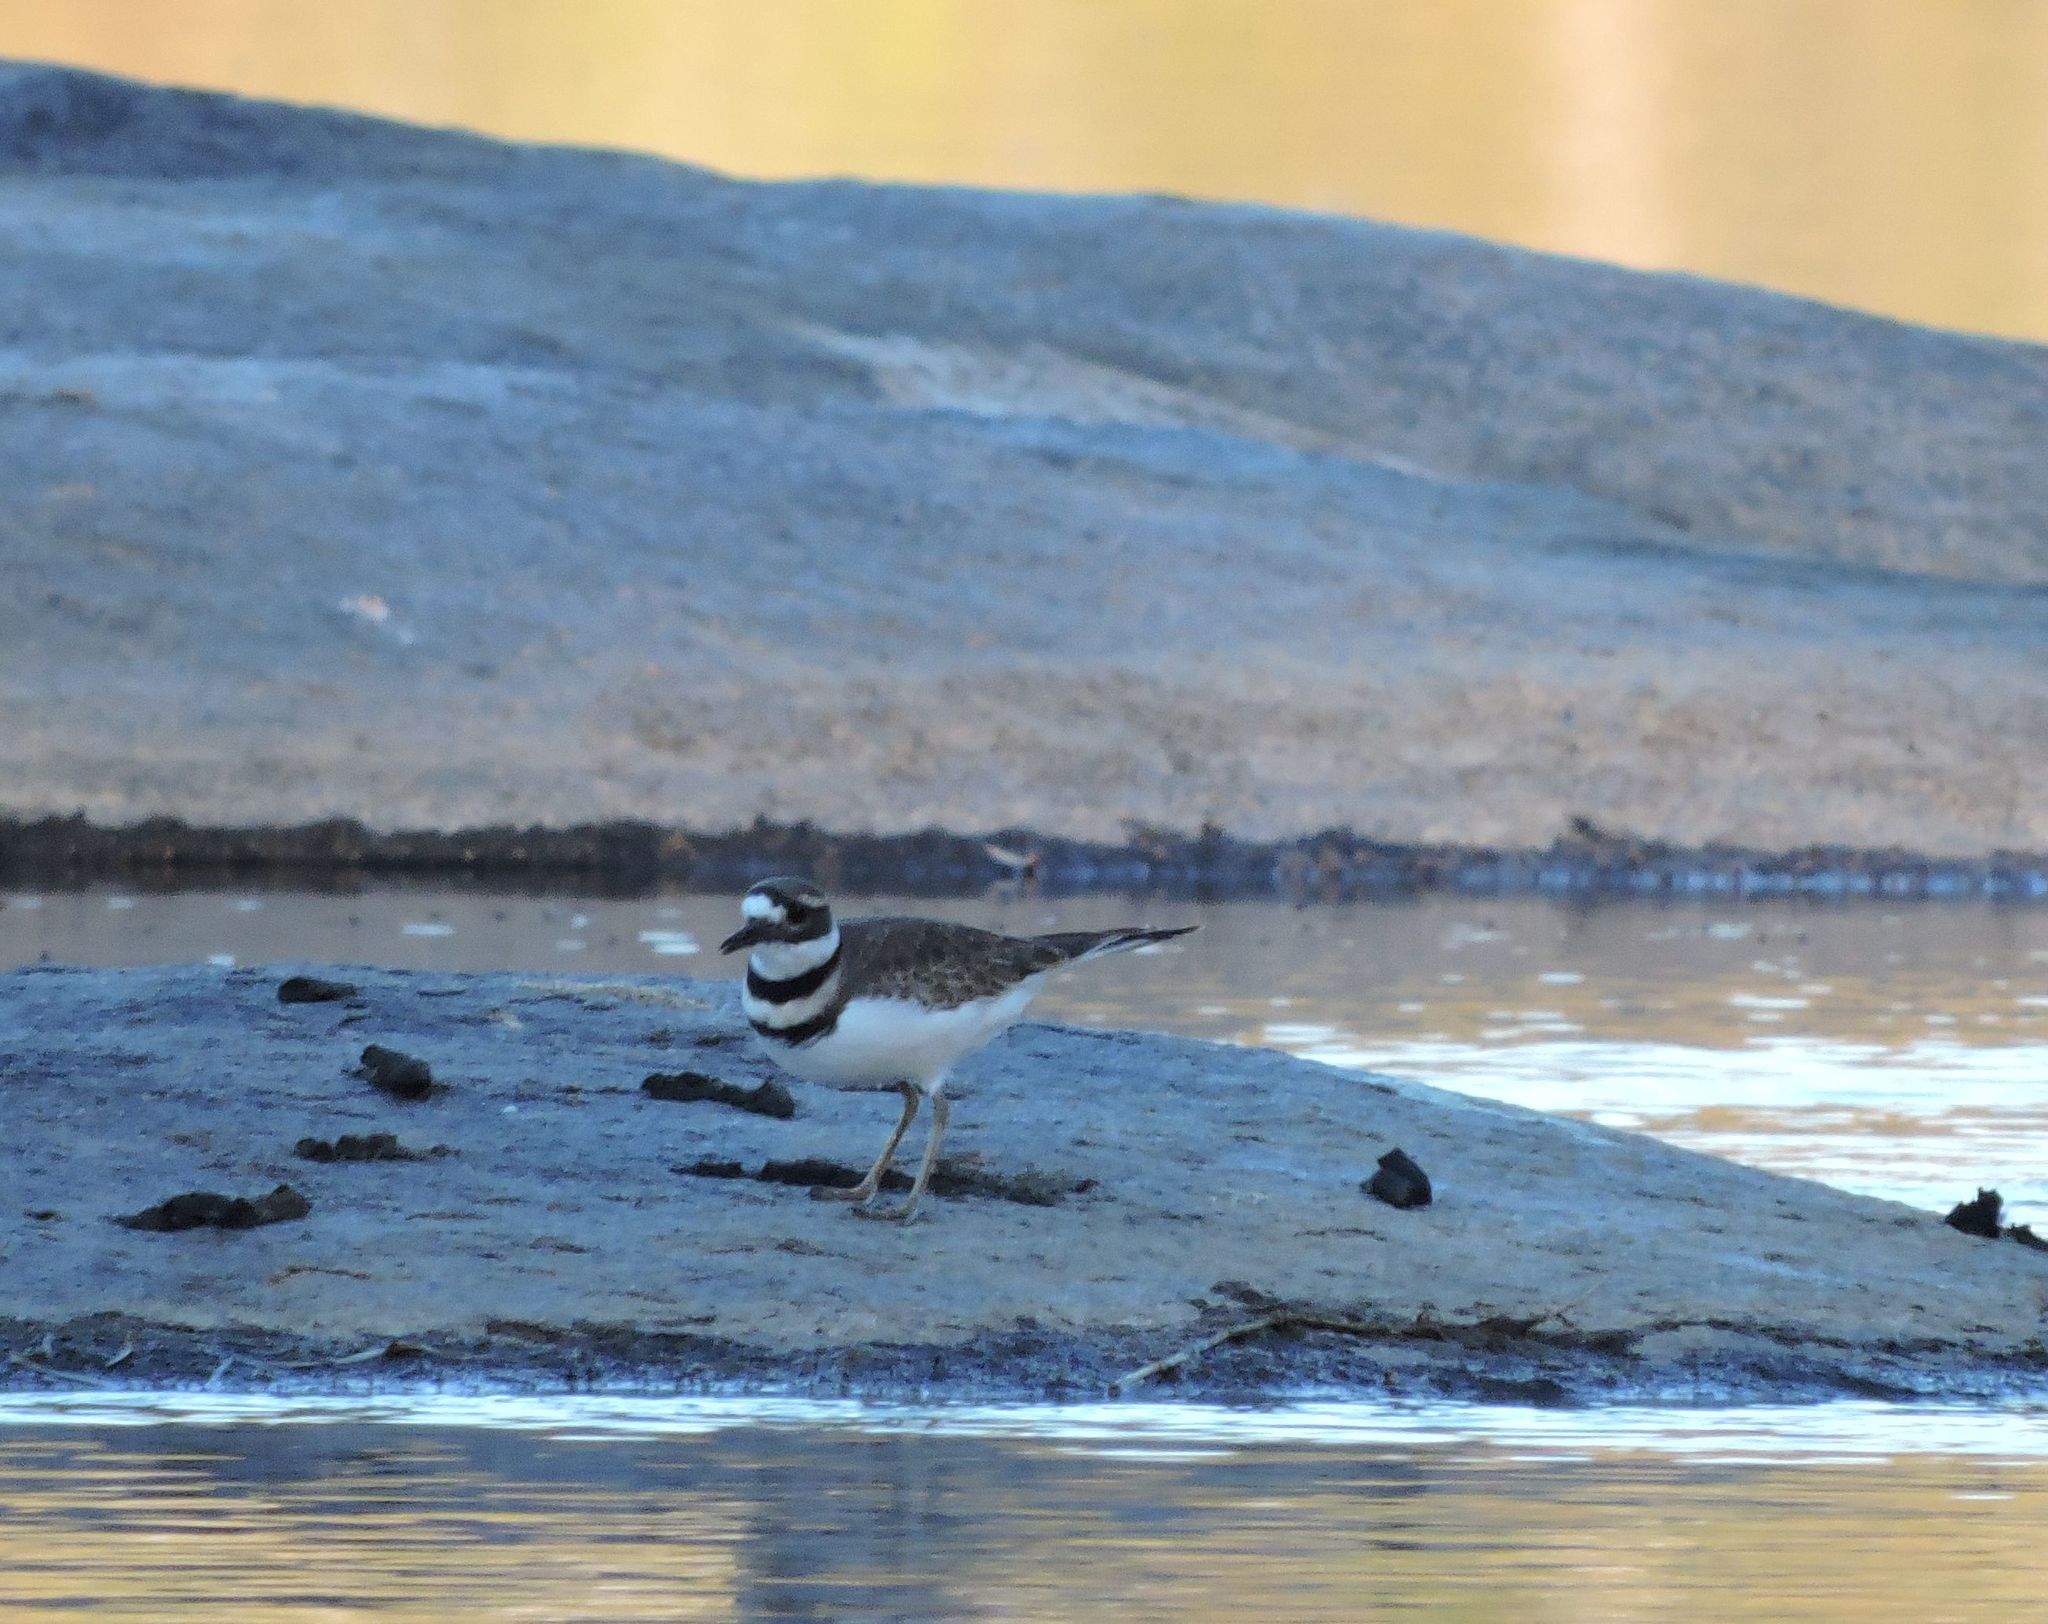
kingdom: Animalia
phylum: Chordata
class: Aves
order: Charadriiformes
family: Charadriidae
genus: Charadrius
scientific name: Charadrius vociferus
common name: Killdeer
